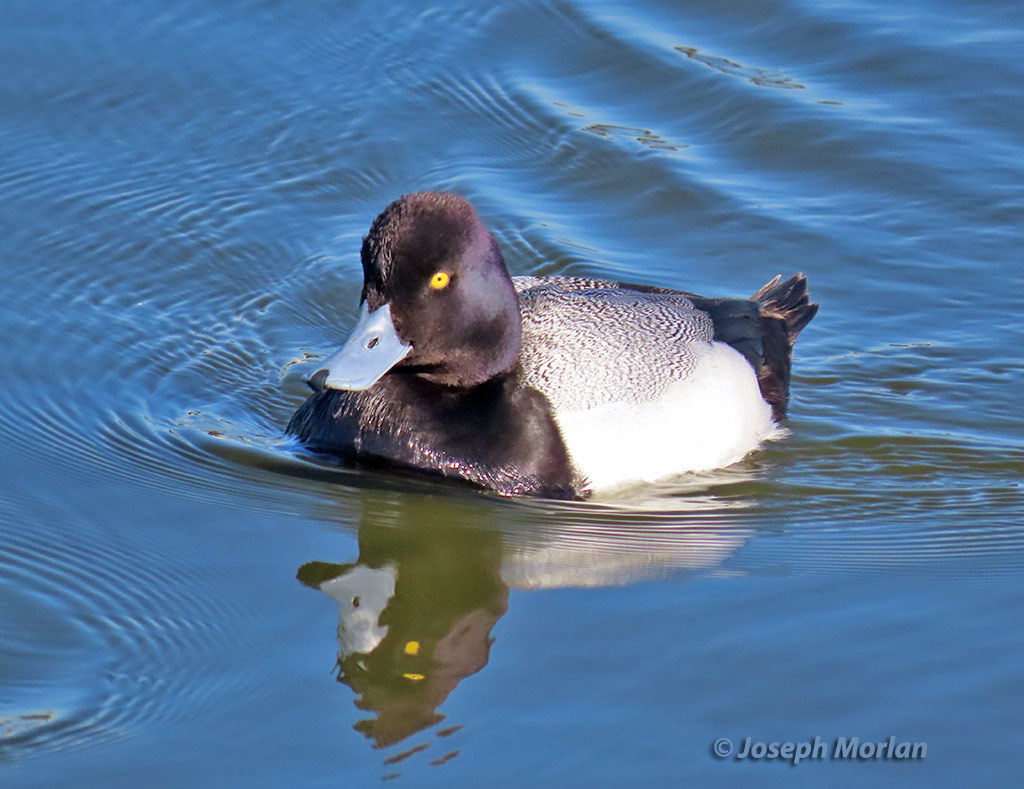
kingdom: Animalia
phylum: Chordata
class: Aves
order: Anseriformes
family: Anatidae
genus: Aythya
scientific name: Aythya affinis
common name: Lesser scaup
